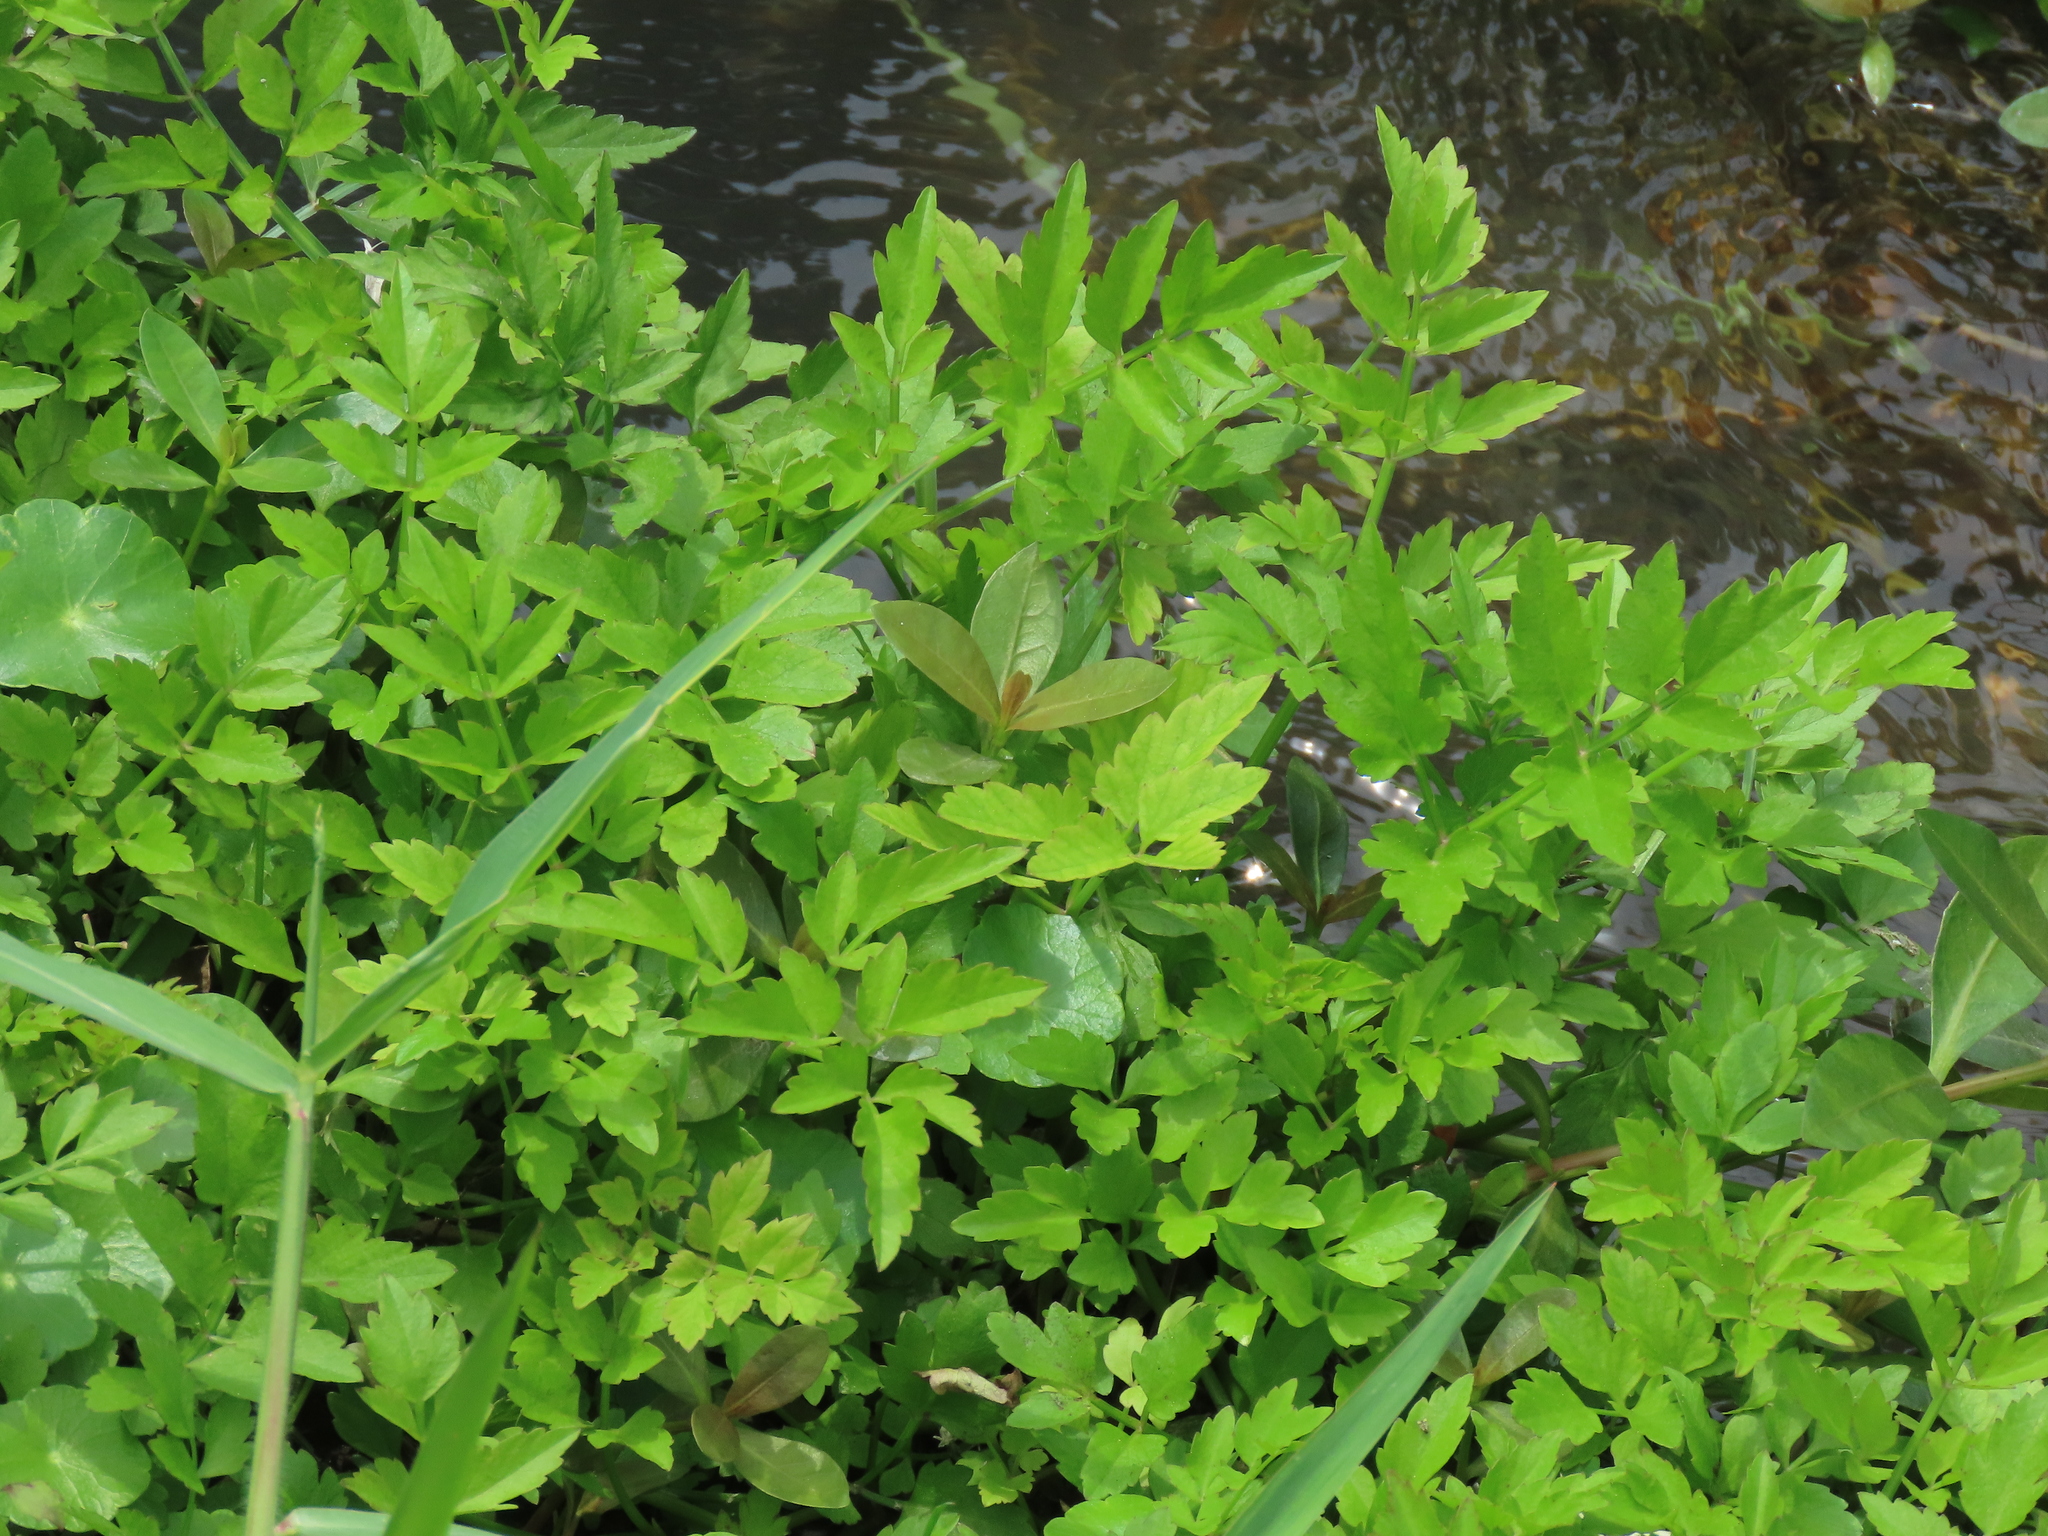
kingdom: Plantae
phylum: Tracheophyta
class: Magnoliopsida
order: Apiales
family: Apiaceae
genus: Oenanthe
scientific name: Oenanthe javanica
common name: Java water-dropwort
